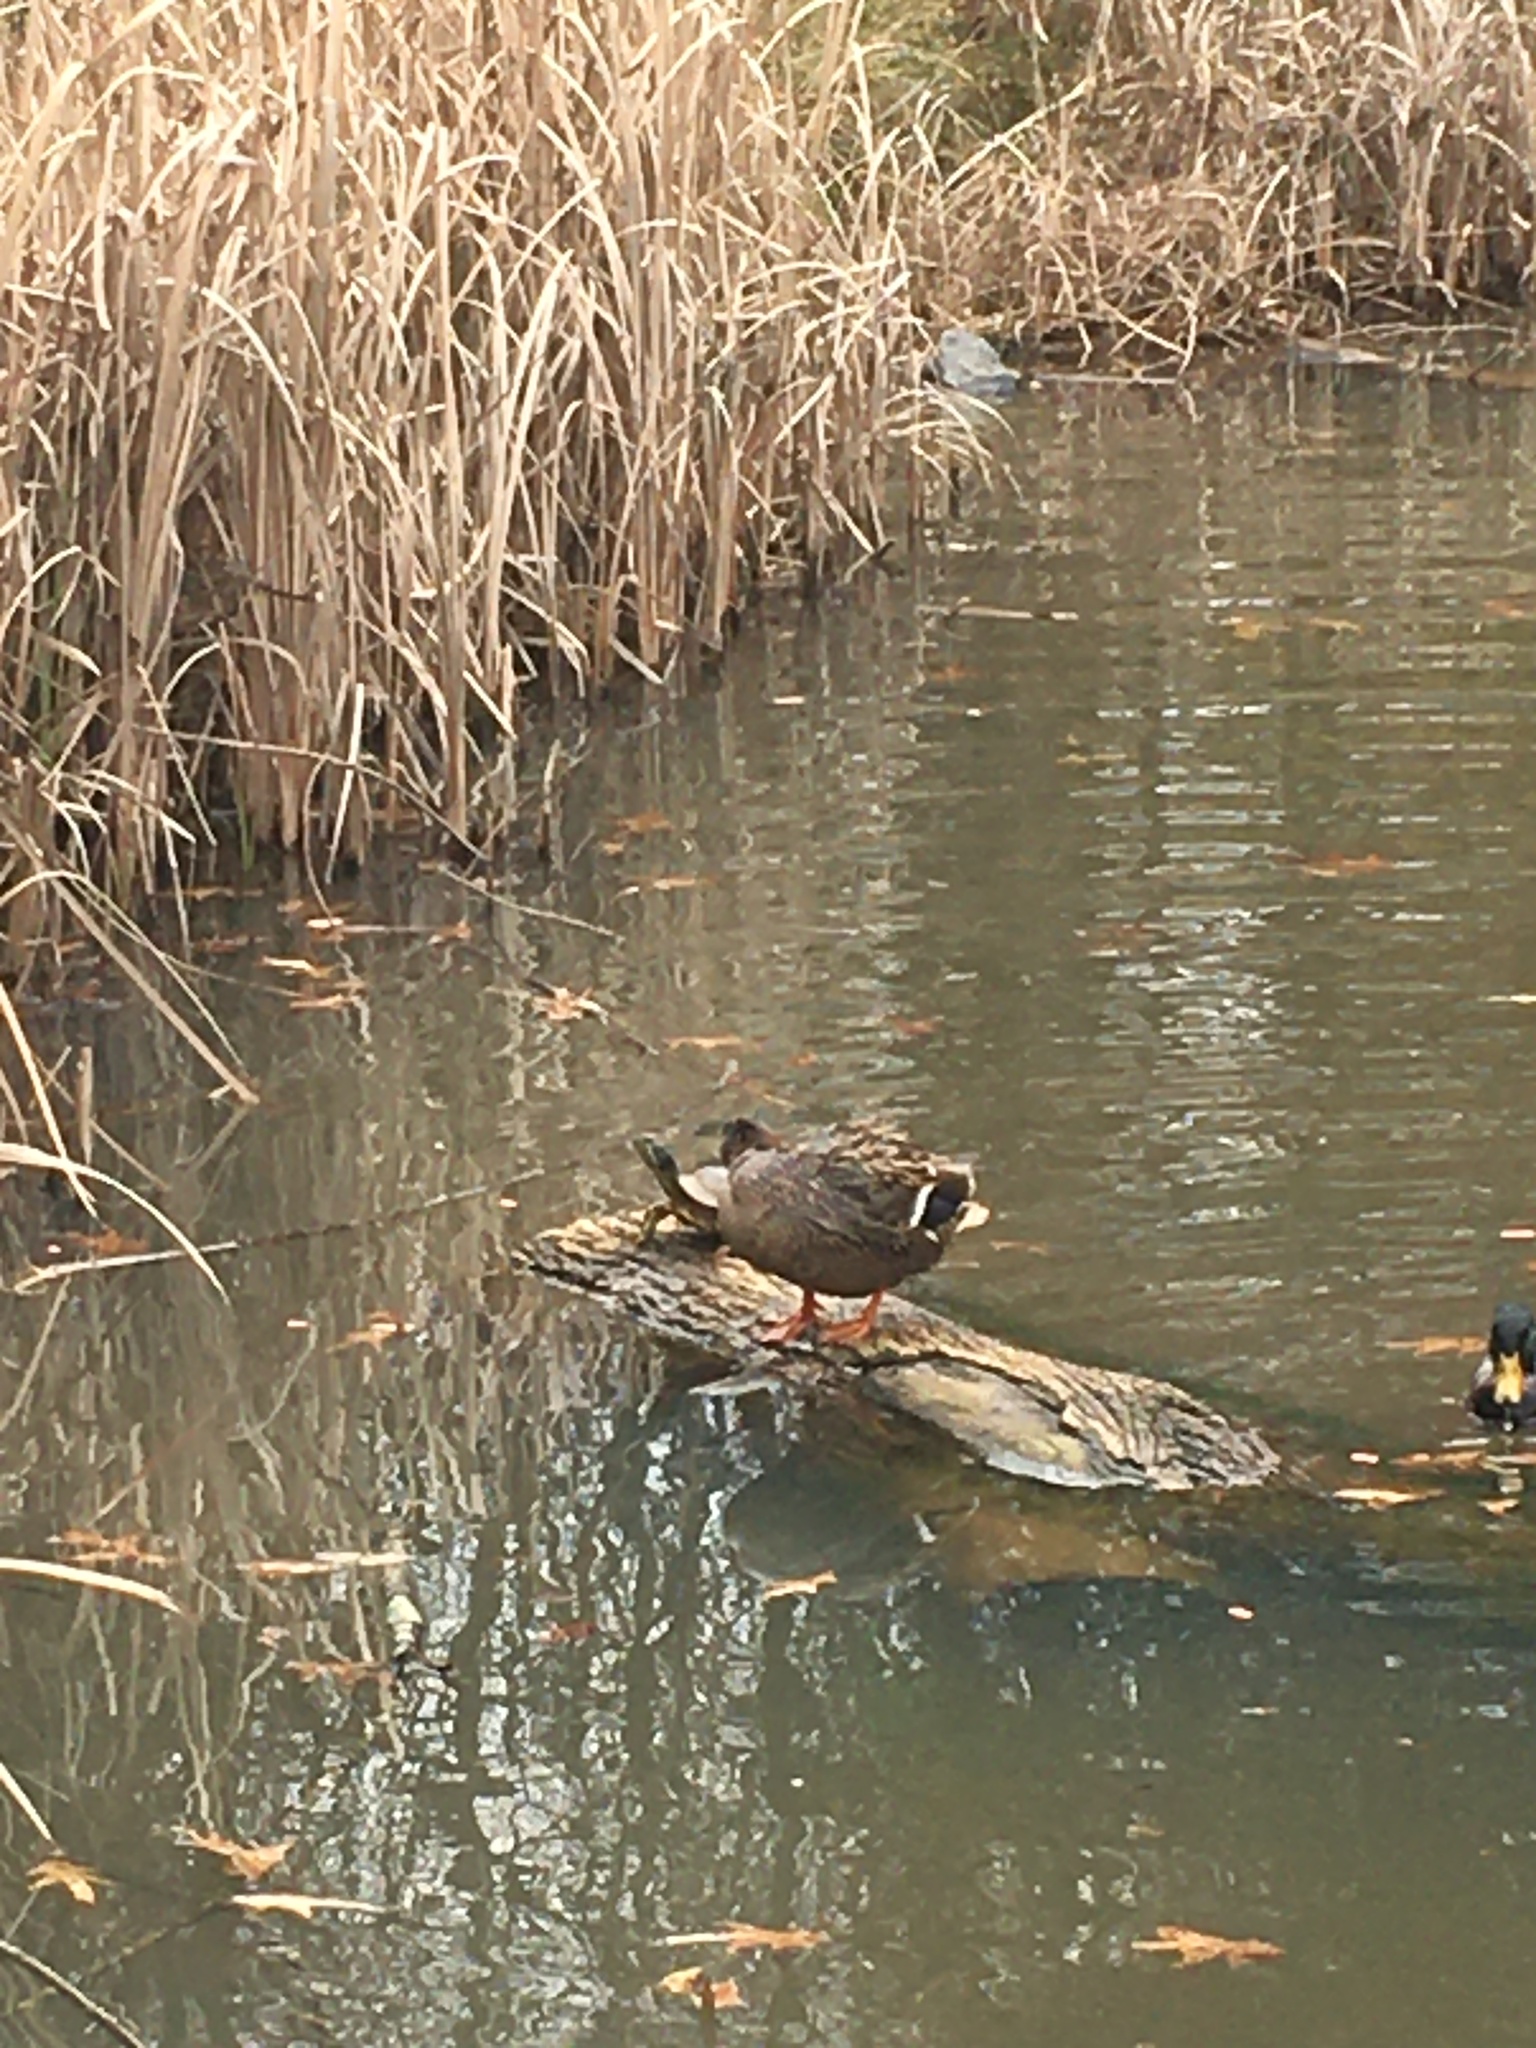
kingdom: Animalia
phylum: Chordata
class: Aves
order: Anseriformes
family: Anatidae
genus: Anas
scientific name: Anas platyrhynchos
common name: Mallard
